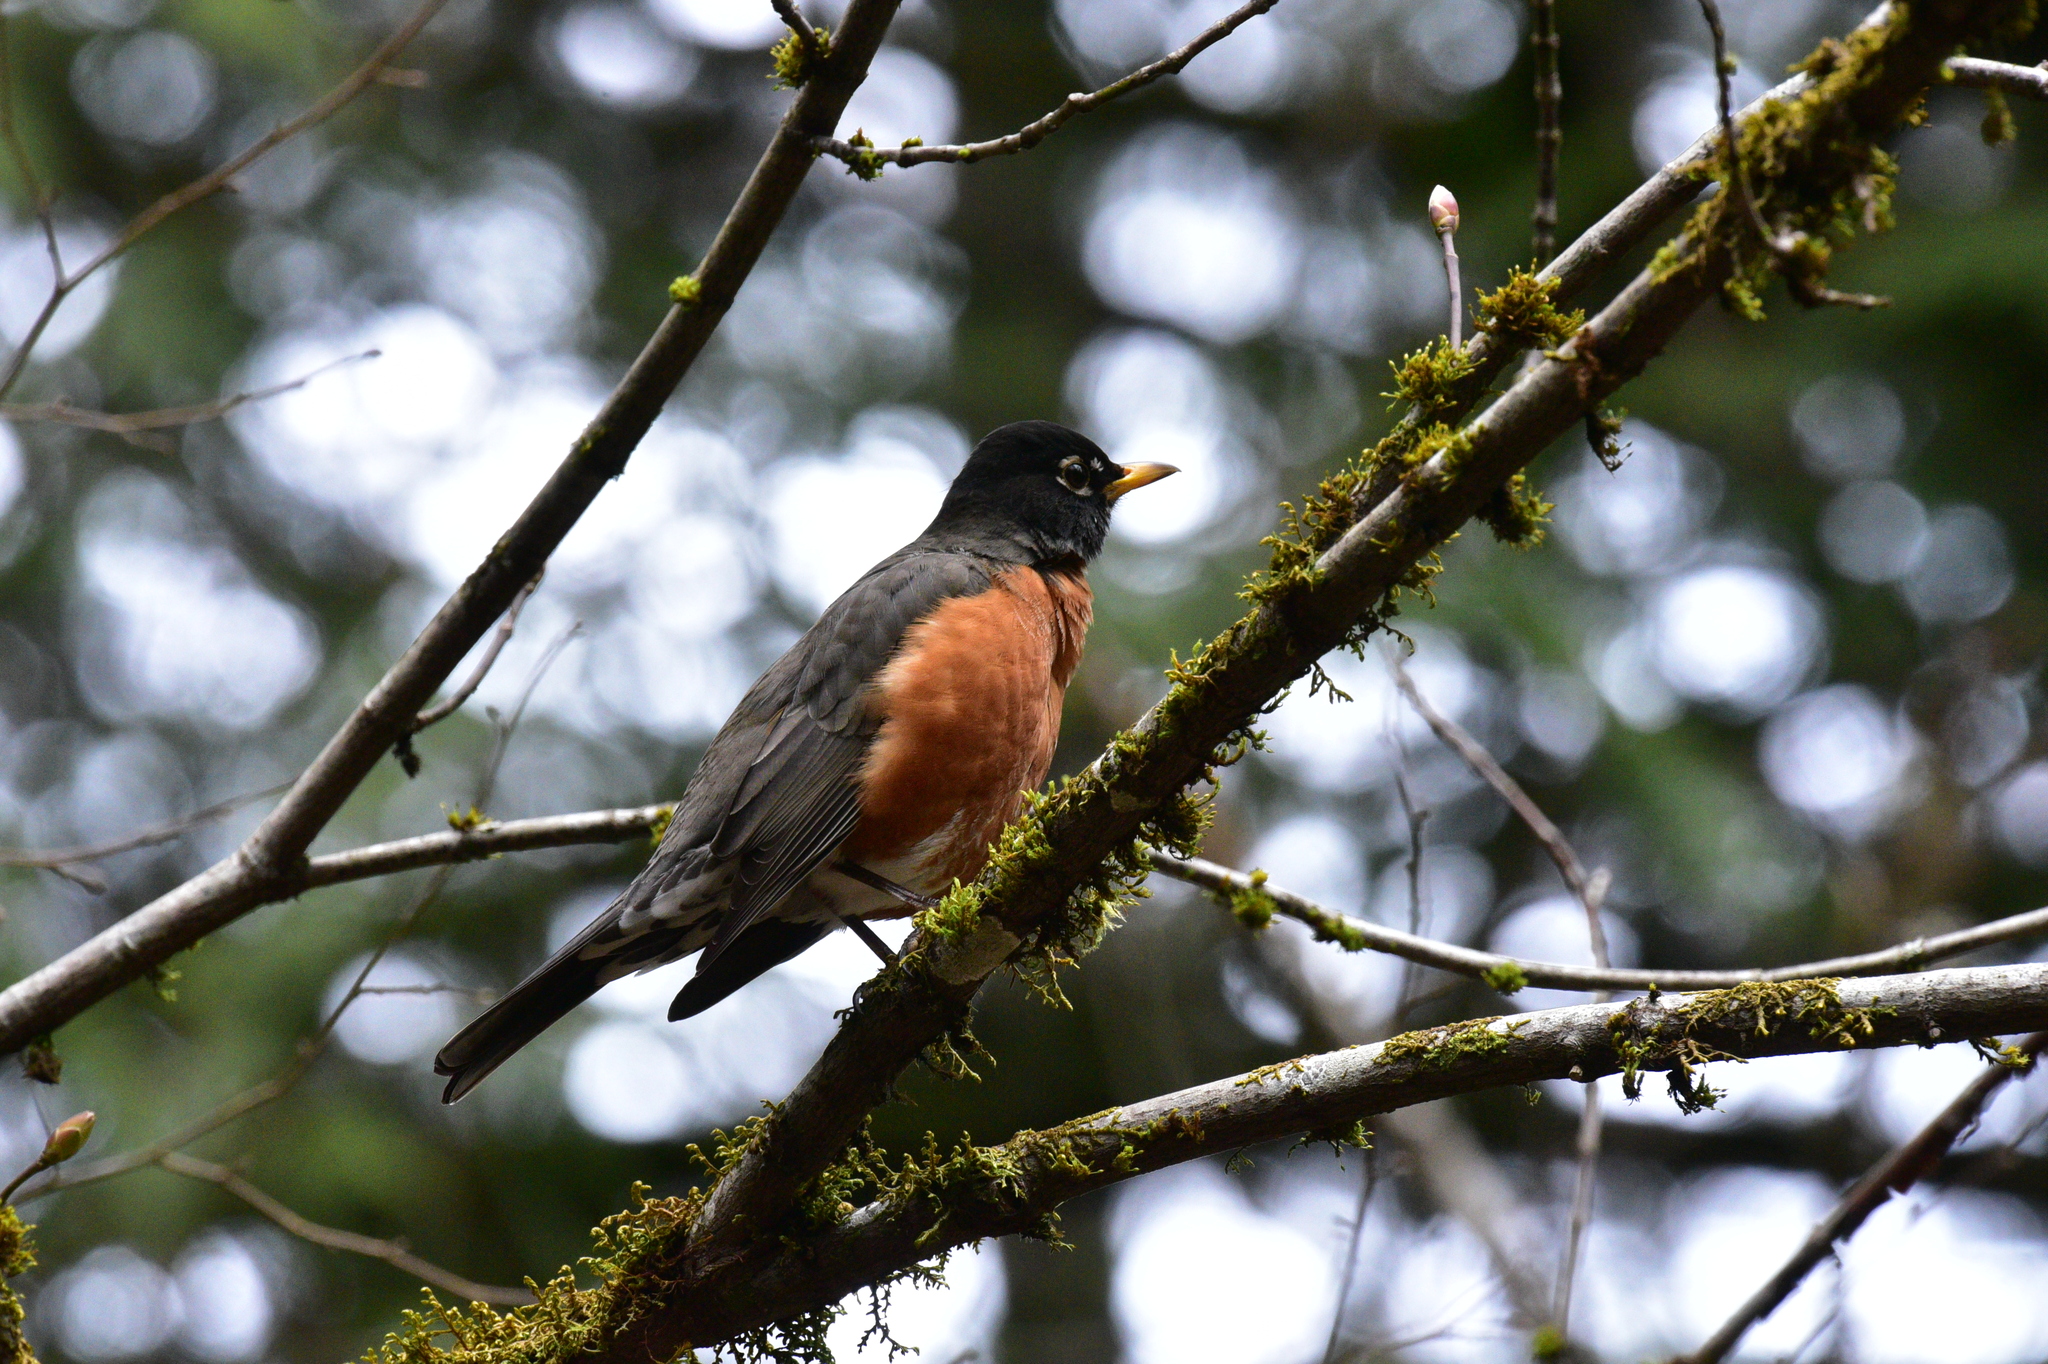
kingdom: Animalia
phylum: Chordata
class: Aves
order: Passeriformes
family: Turdidae
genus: Turdus
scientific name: Turdus migratorius
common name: American robin
